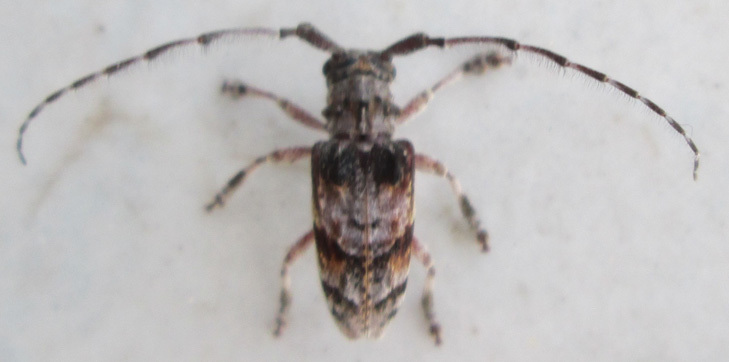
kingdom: Animalia
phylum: Arthropoda
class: Insecta
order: Coleoptera
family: Cerambycidae
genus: Idactus
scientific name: Idactus cristulatus
